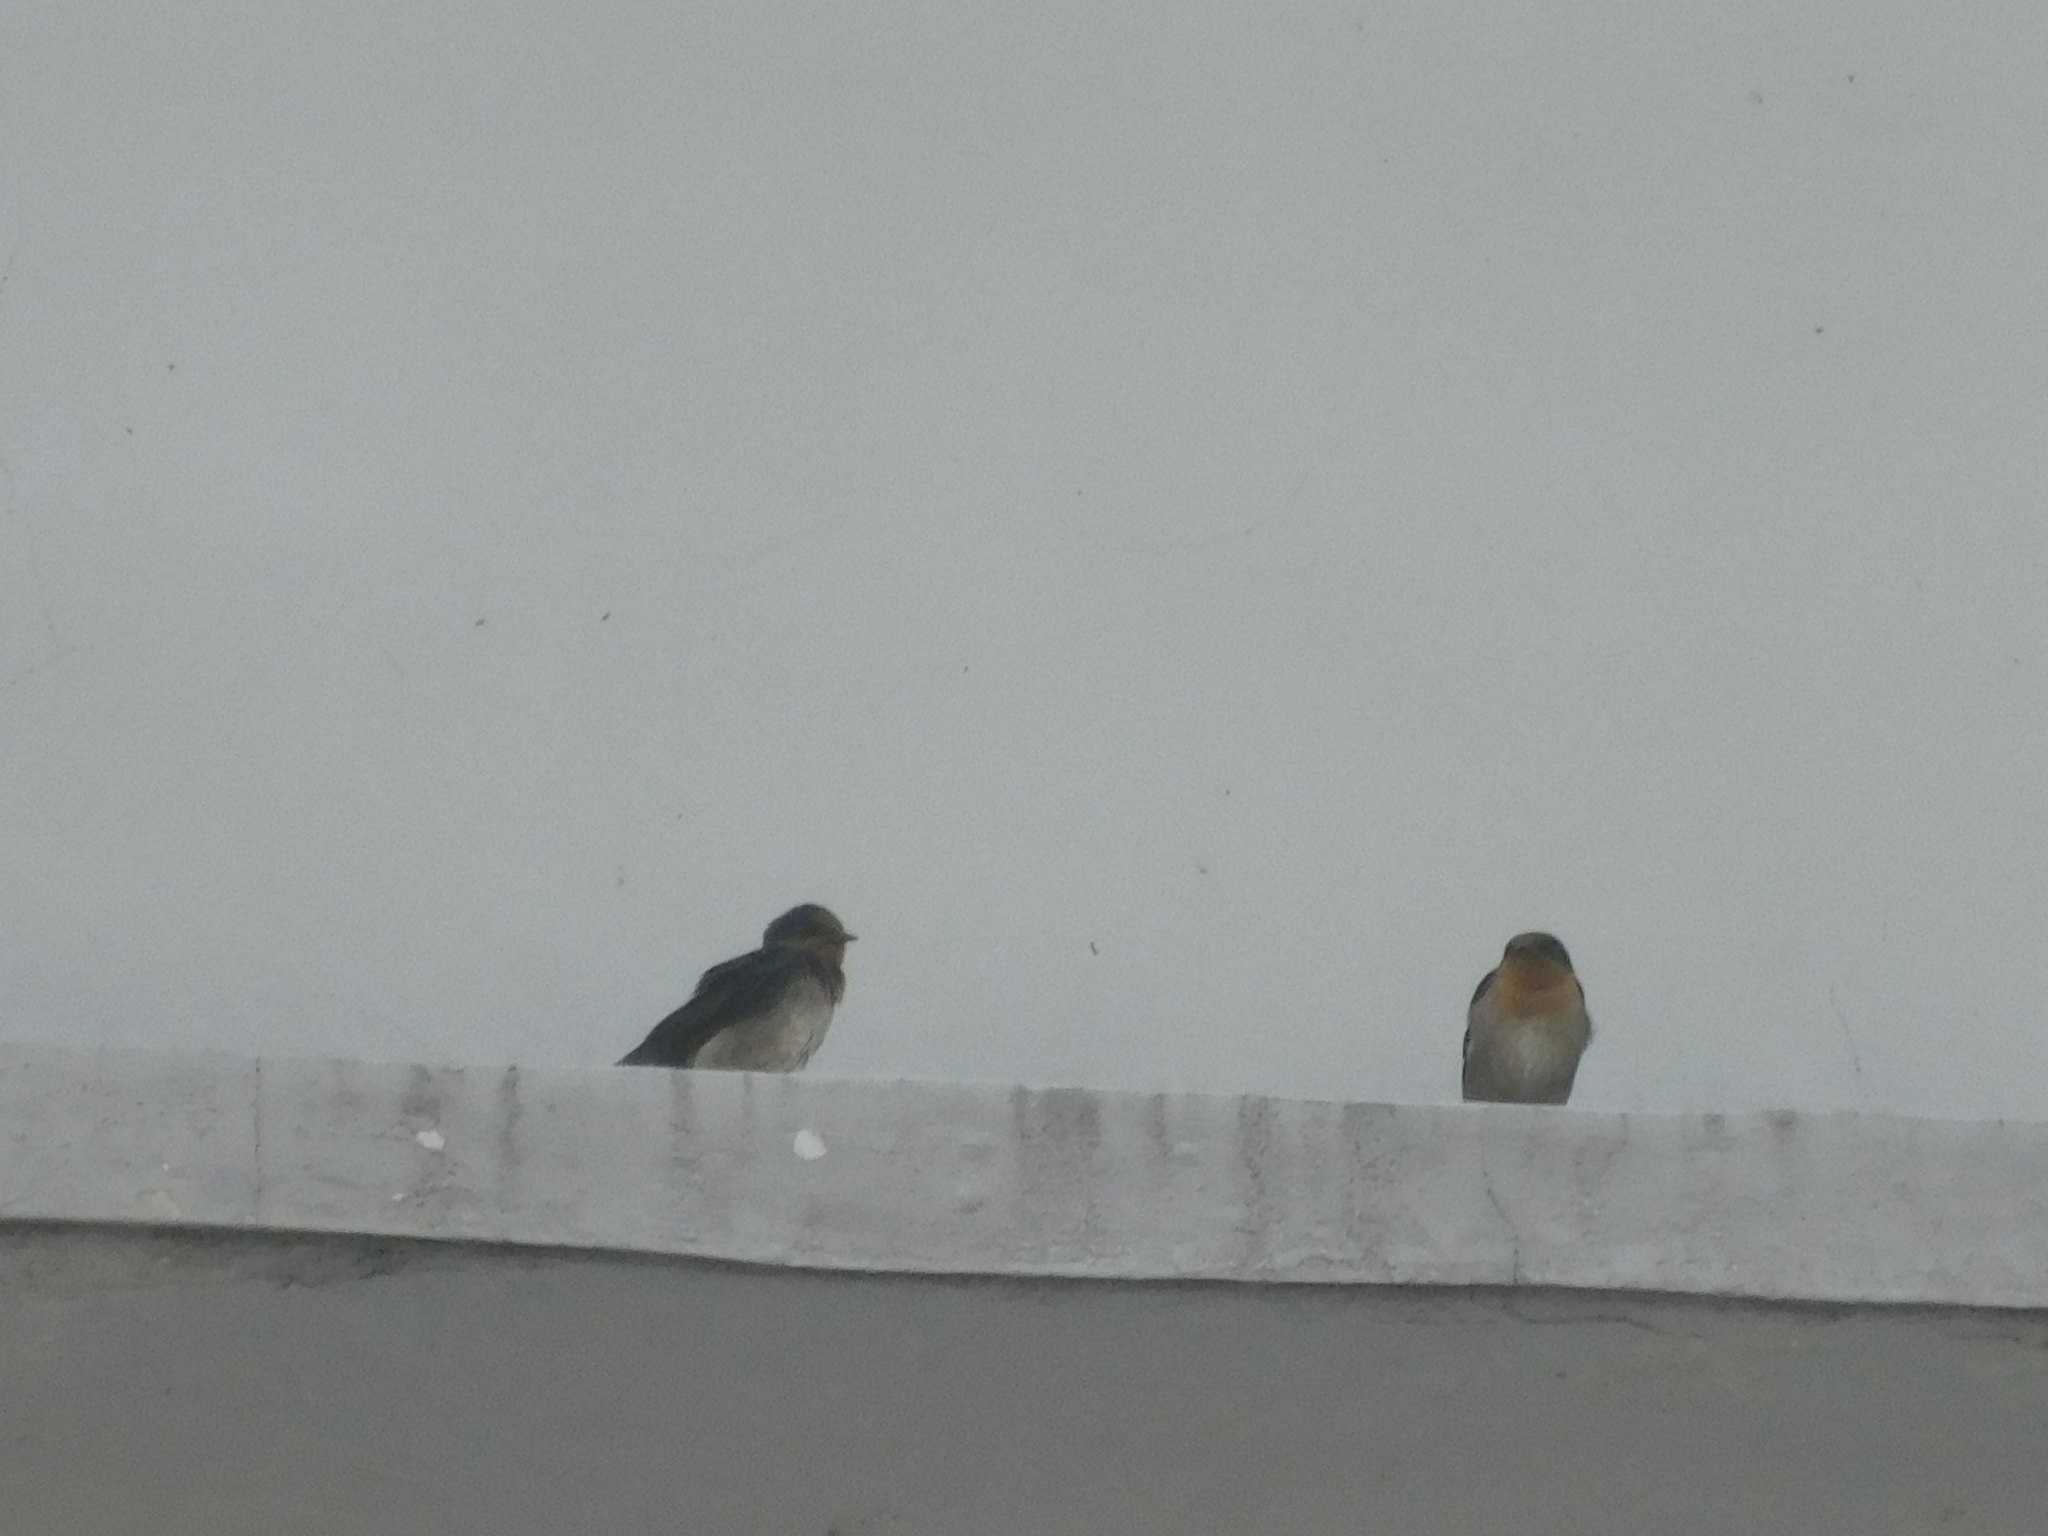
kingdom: Animalia
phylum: Chordata
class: Aves
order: Passeriformes
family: Hirundinidae
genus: Hirundo
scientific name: Hirundo tahitica
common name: Pacific swallow
